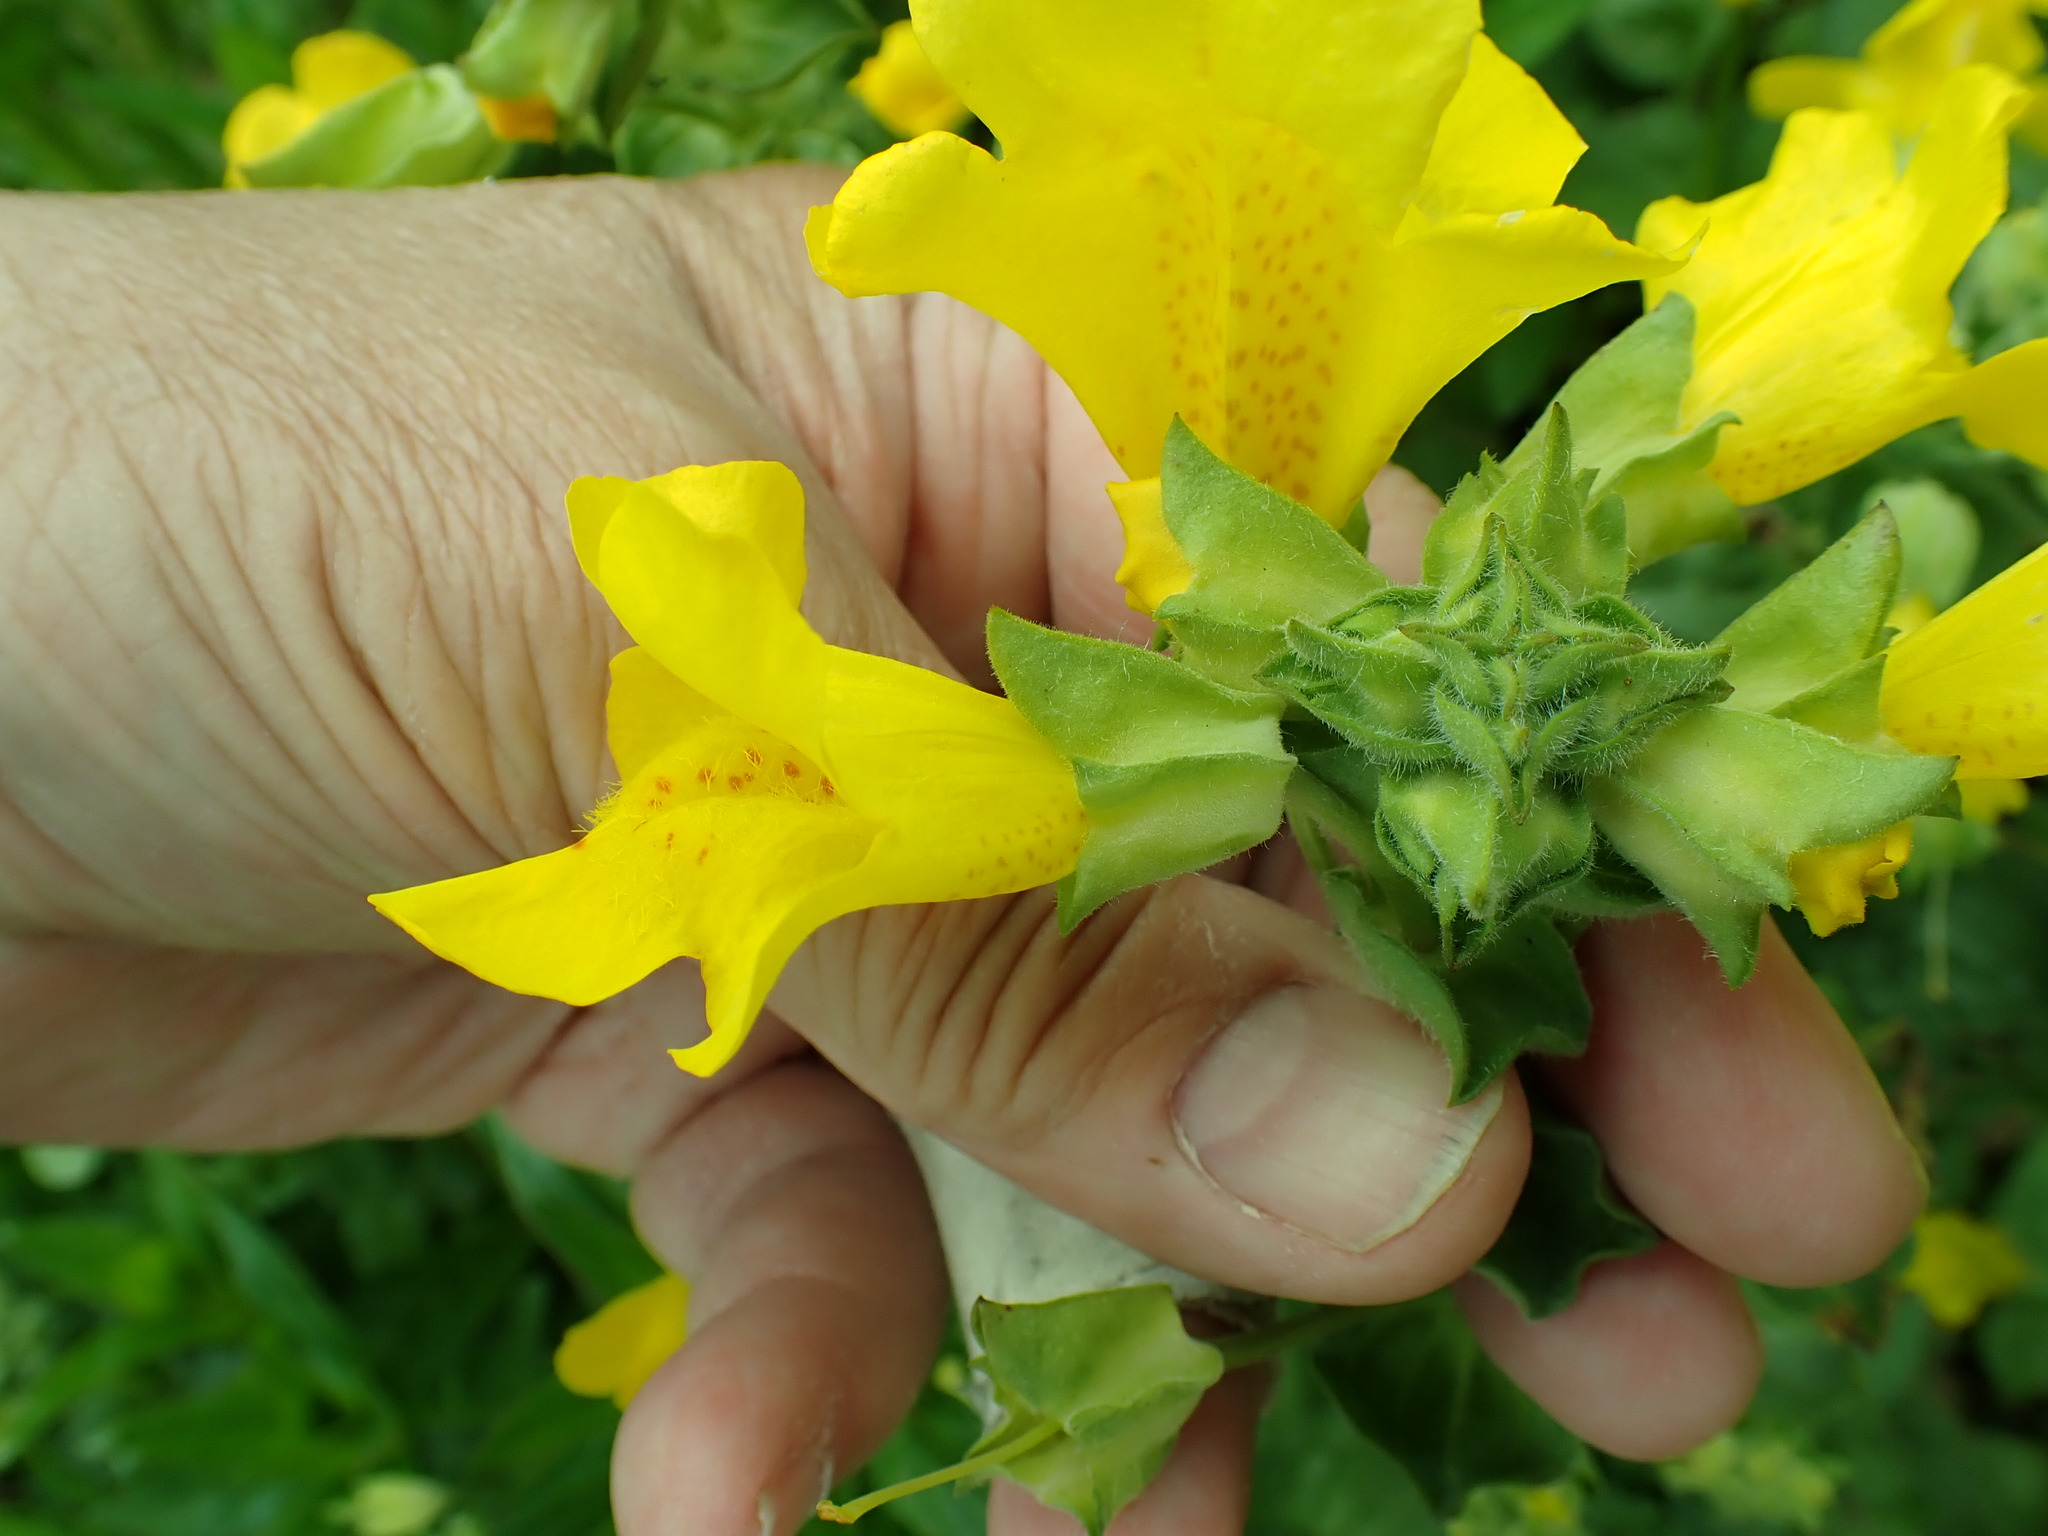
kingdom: Plantae
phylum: Tracheophyta
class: Magnoliopsida
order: Lamiales
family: Phrymaceae
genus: Erythranthe
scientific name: Erythranthe grandis
